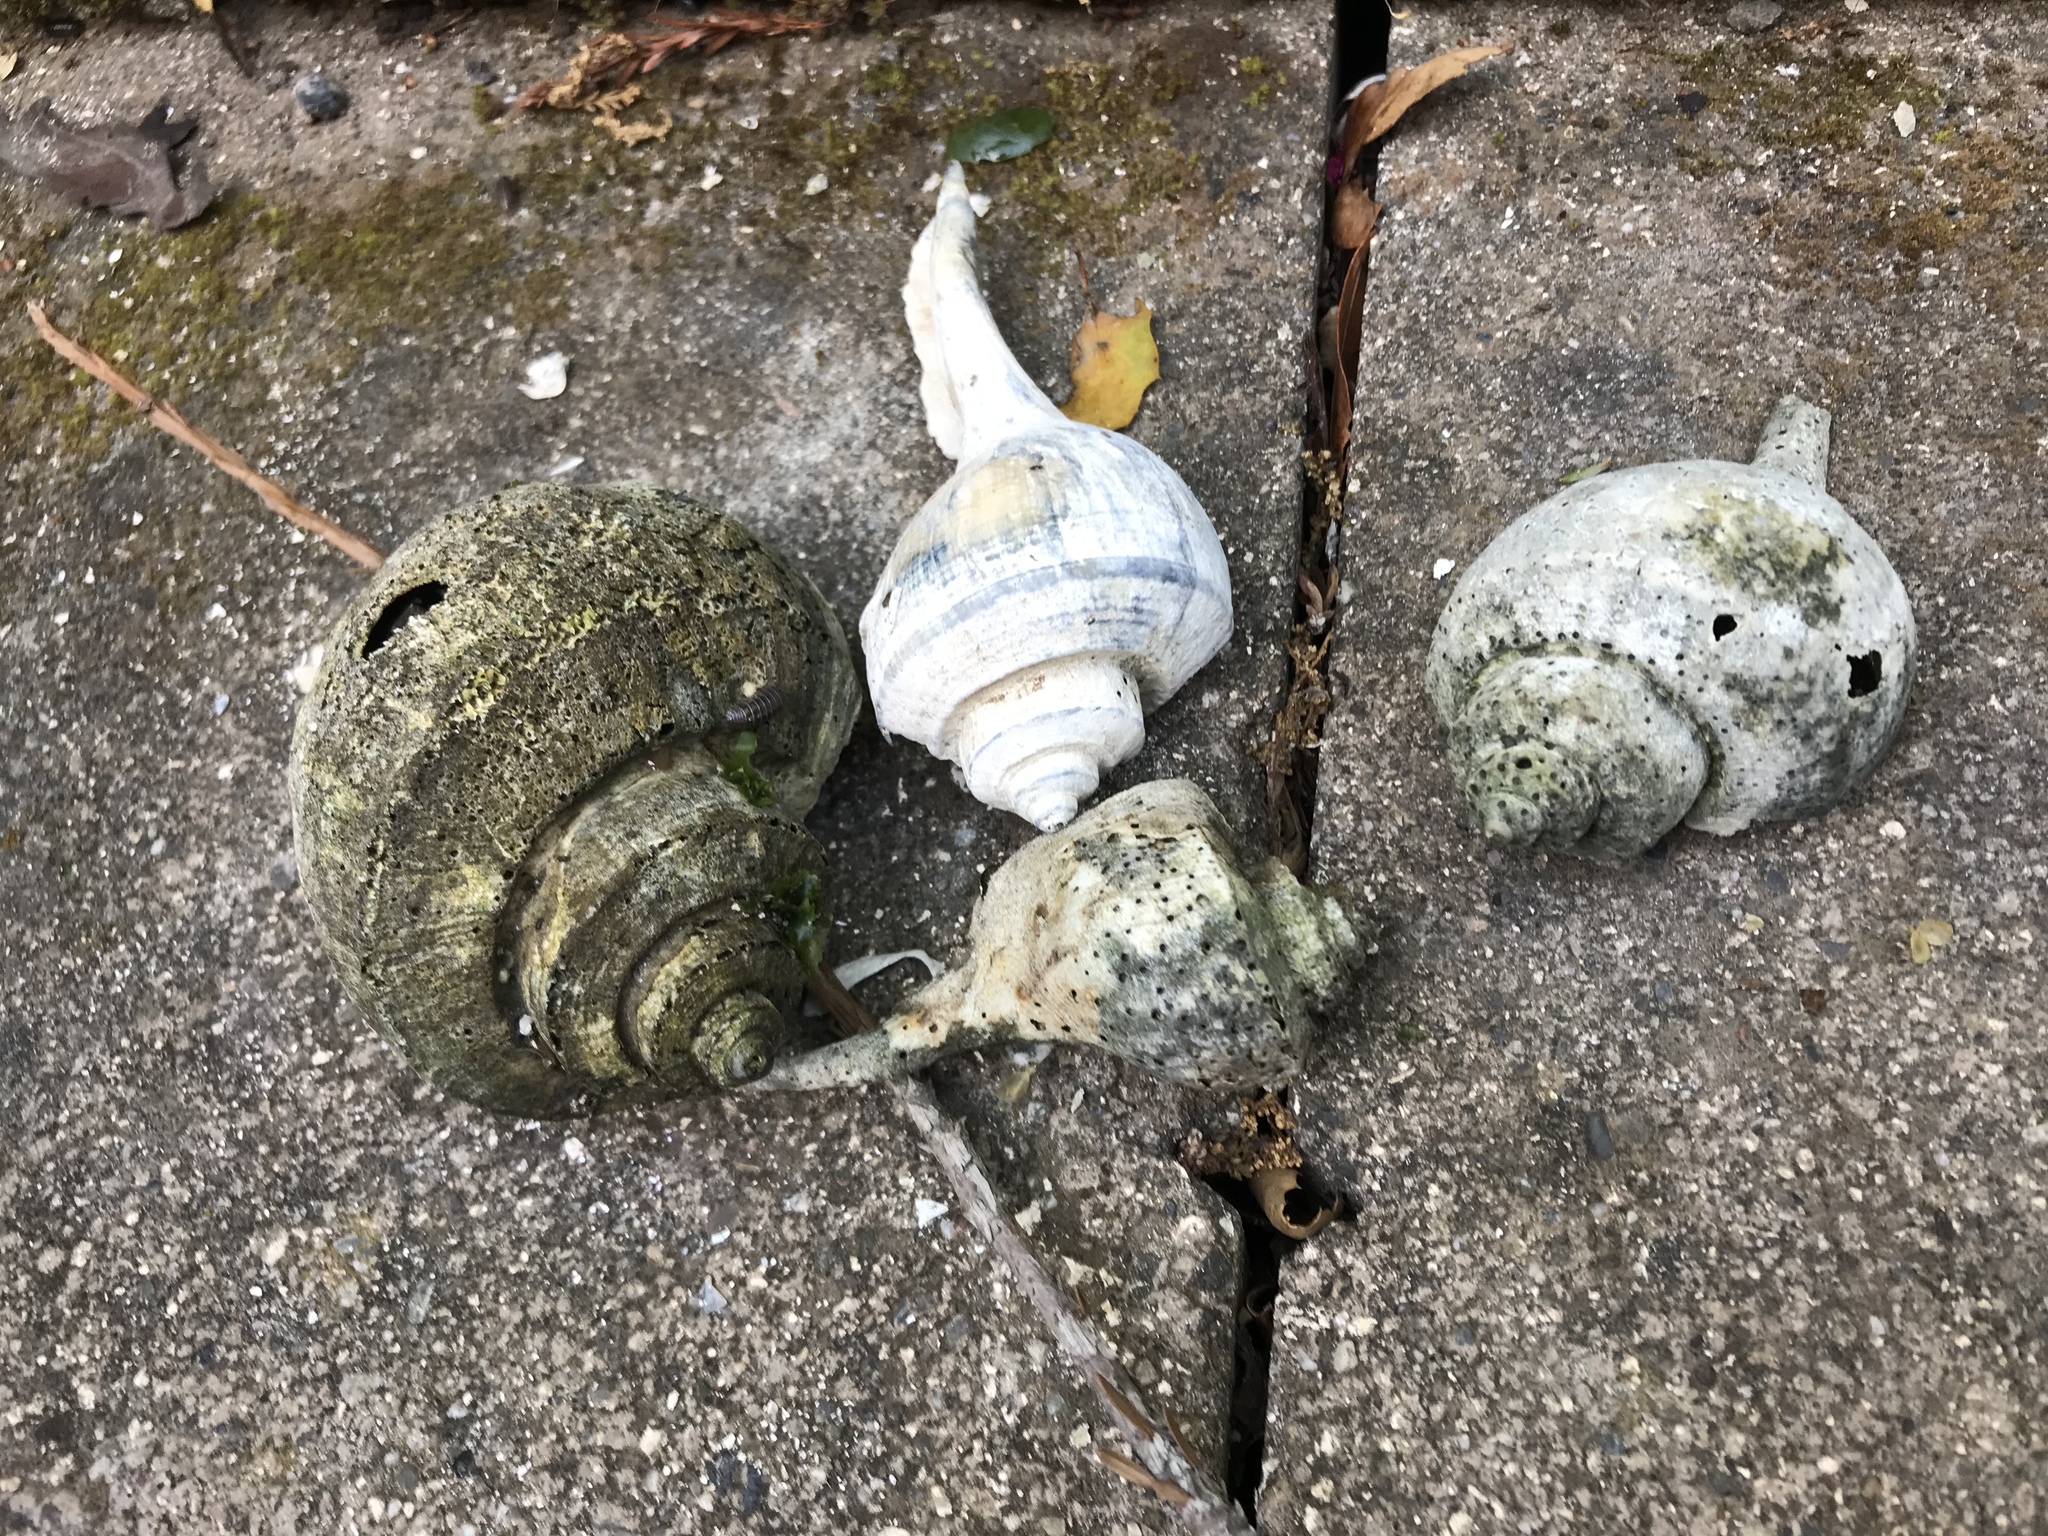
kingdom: Animalia
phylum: Mollusca
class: Gastropoda
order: Neogastropoda
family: Busyconidae
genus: Busycotypus
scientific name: Busycotypus canaliculatus
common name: Channeled whelk
